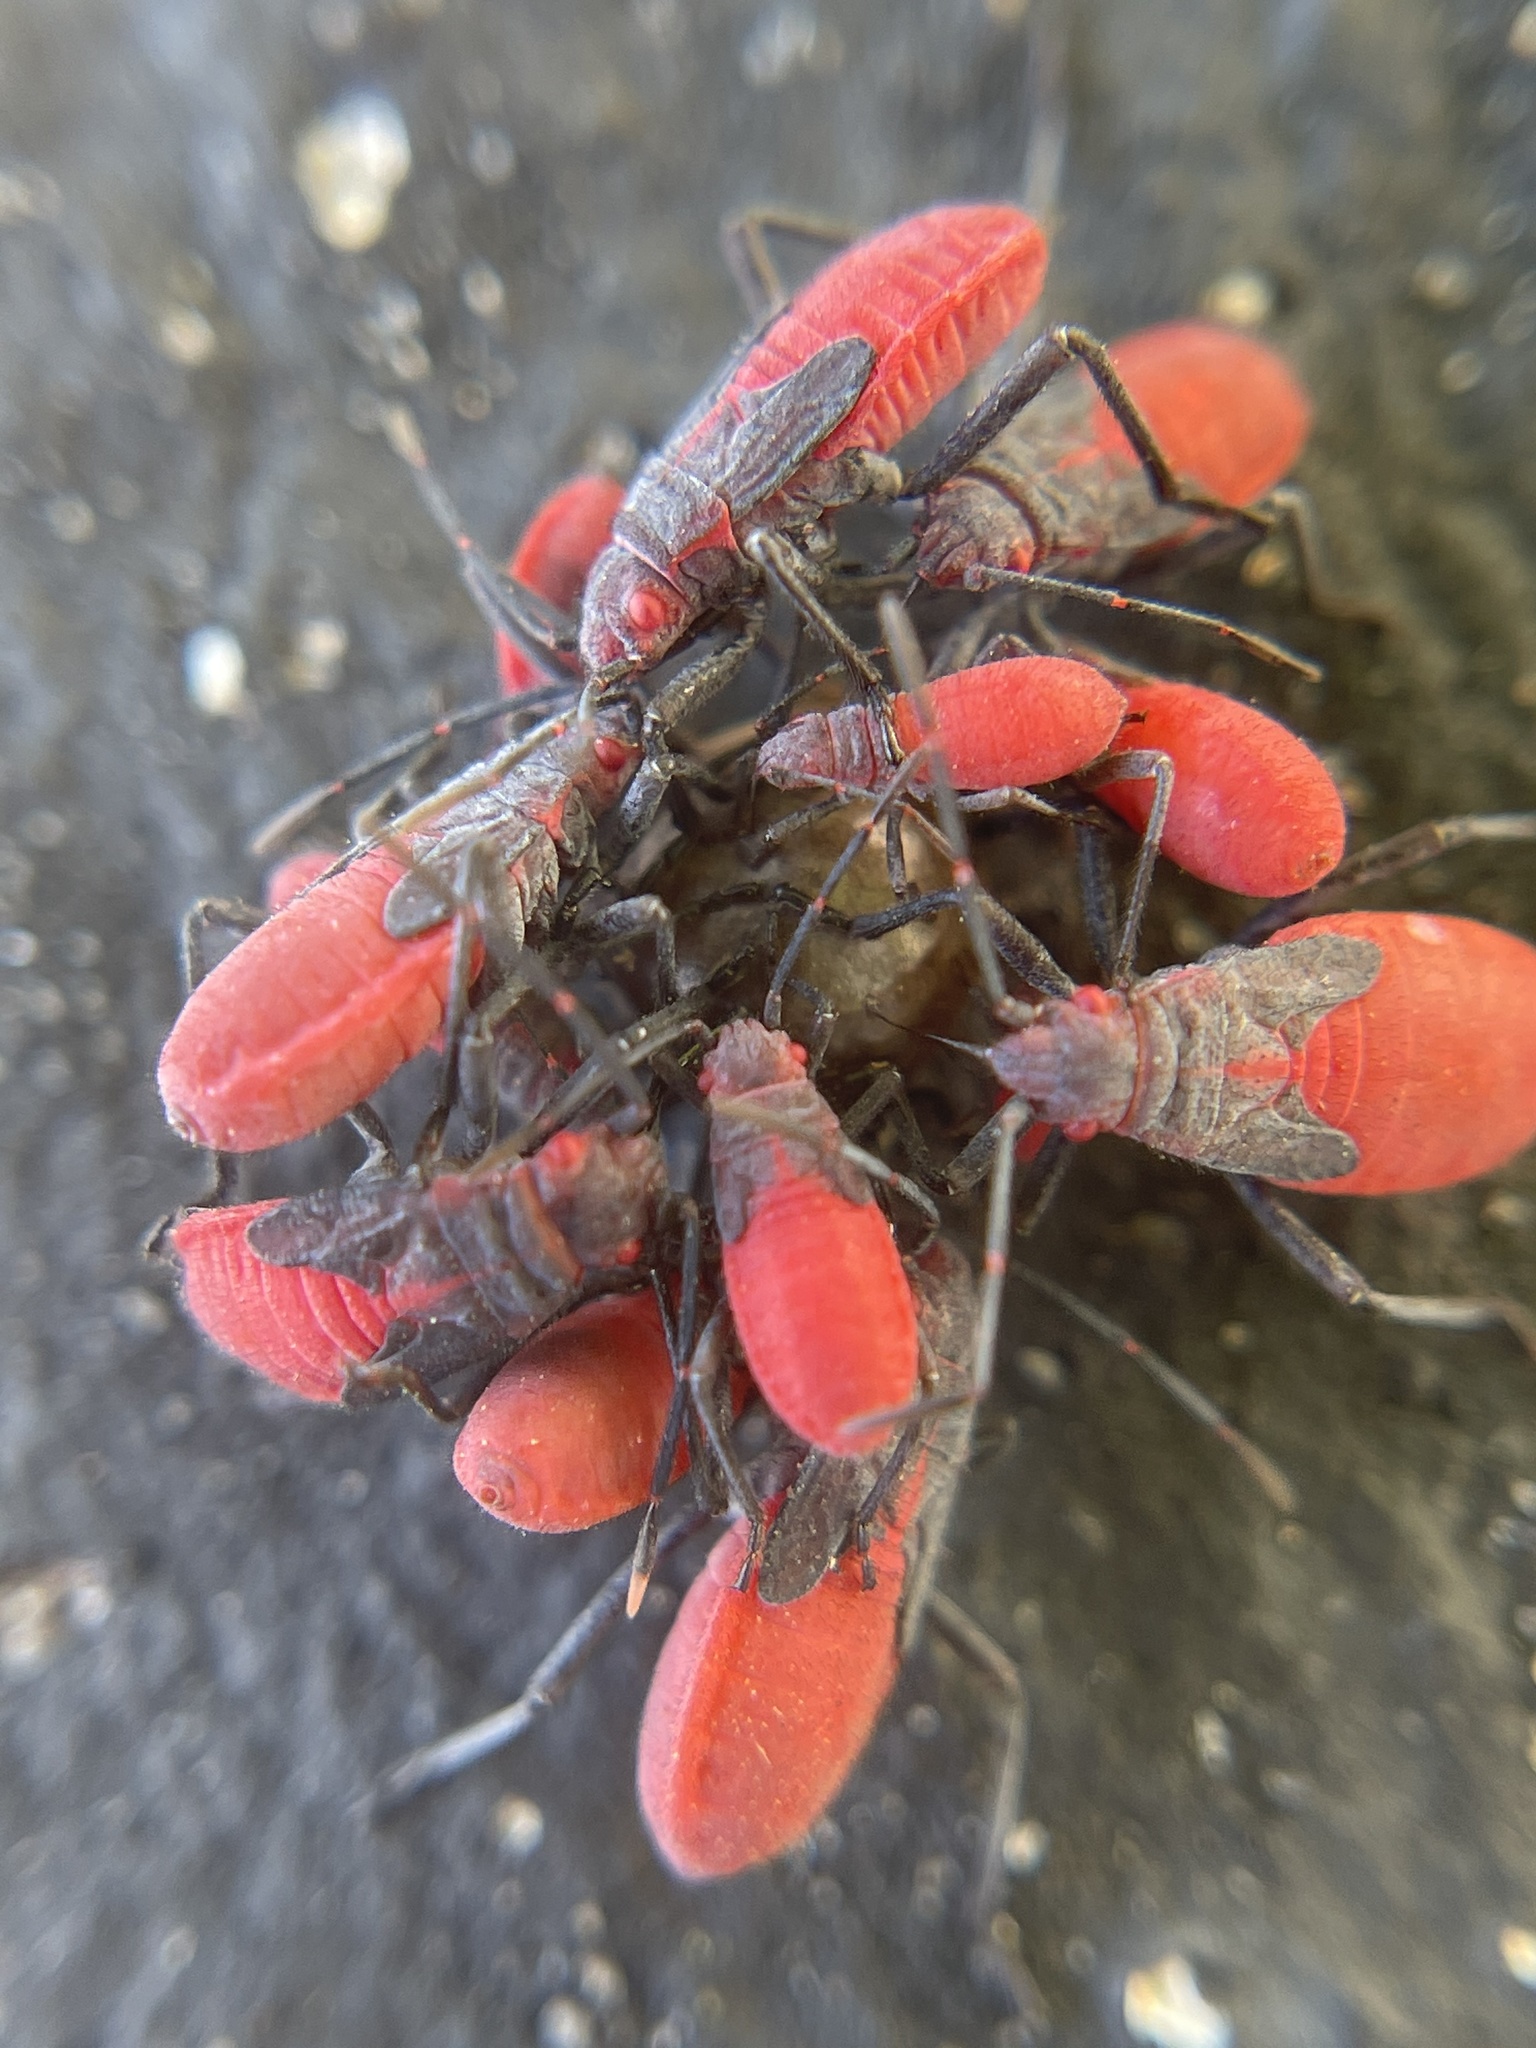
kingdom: Animalia
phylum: Arthropoda
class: Insecta
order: Hemiptera
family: Rhopalidae
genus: Jadera
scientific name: Jadera haematoloma
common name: Red-shouldered bug
